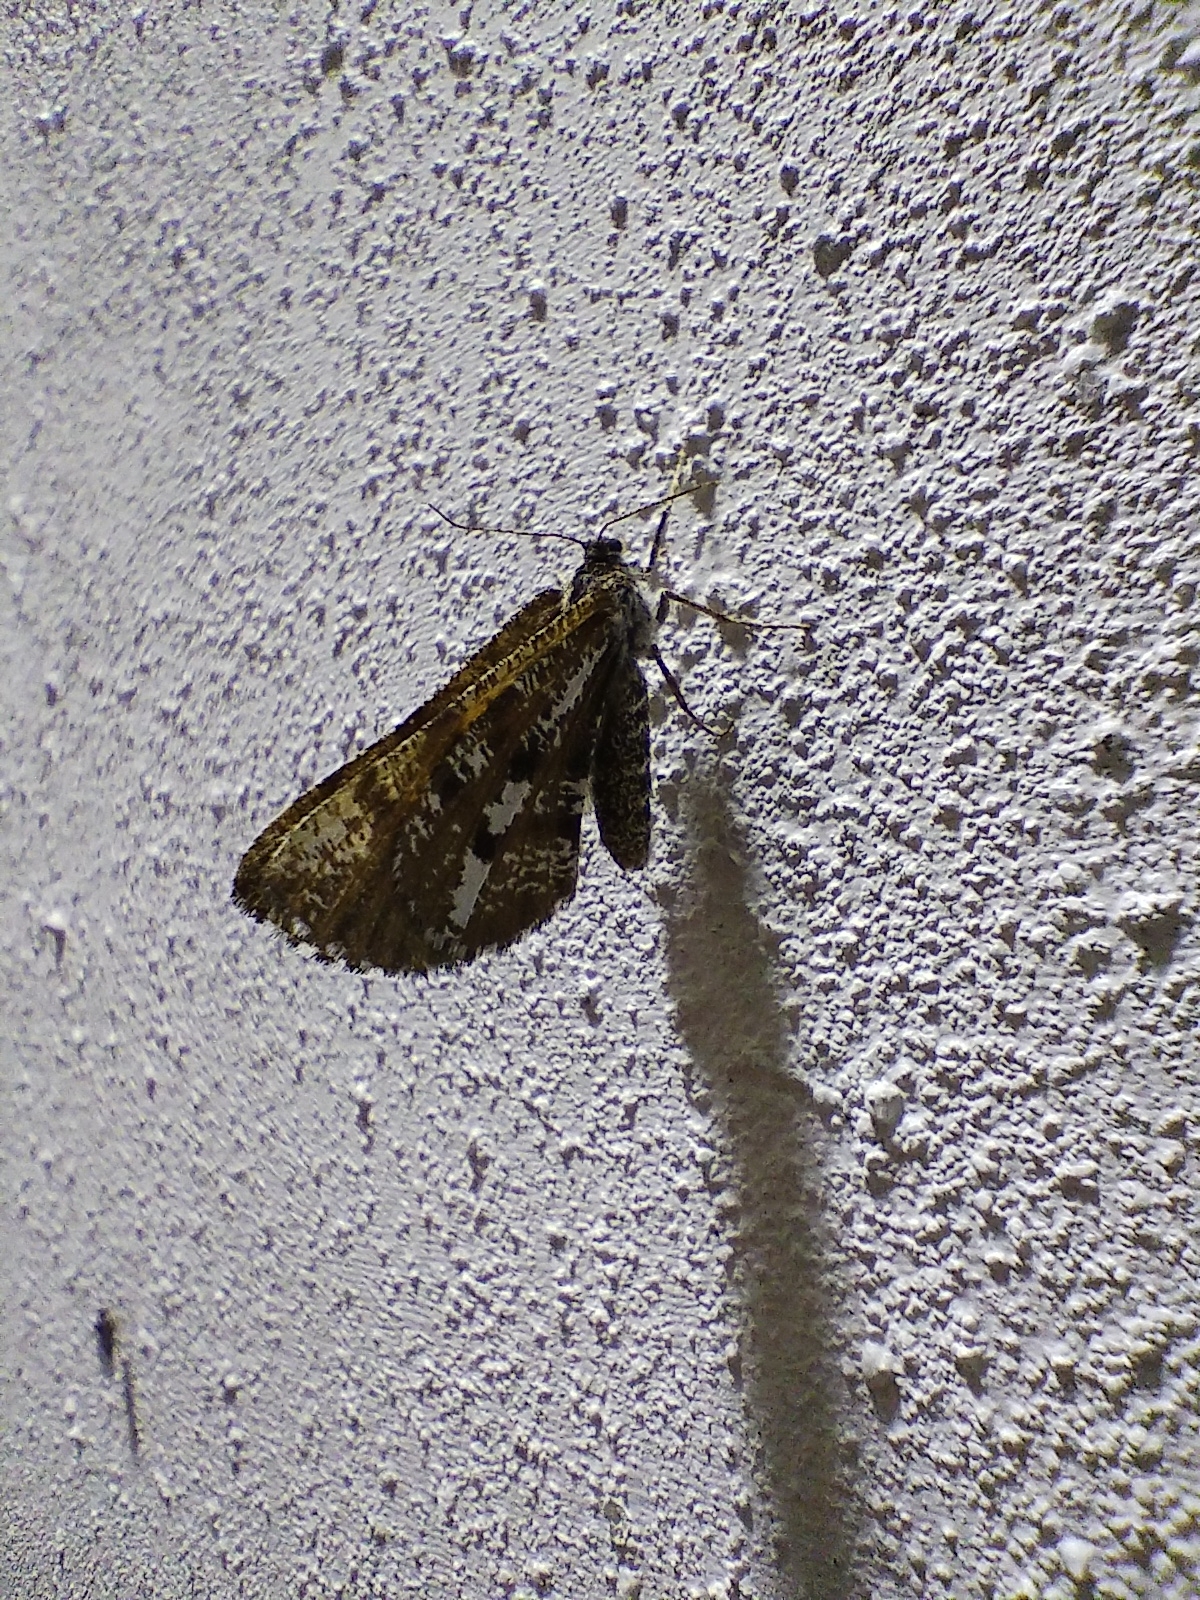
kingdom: Animalia
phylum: Arthropoda
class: Insecta
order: Lepidoptera
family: Geometridae
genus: Bupalus
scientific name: Bupalus piniaria
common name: Bordered white
